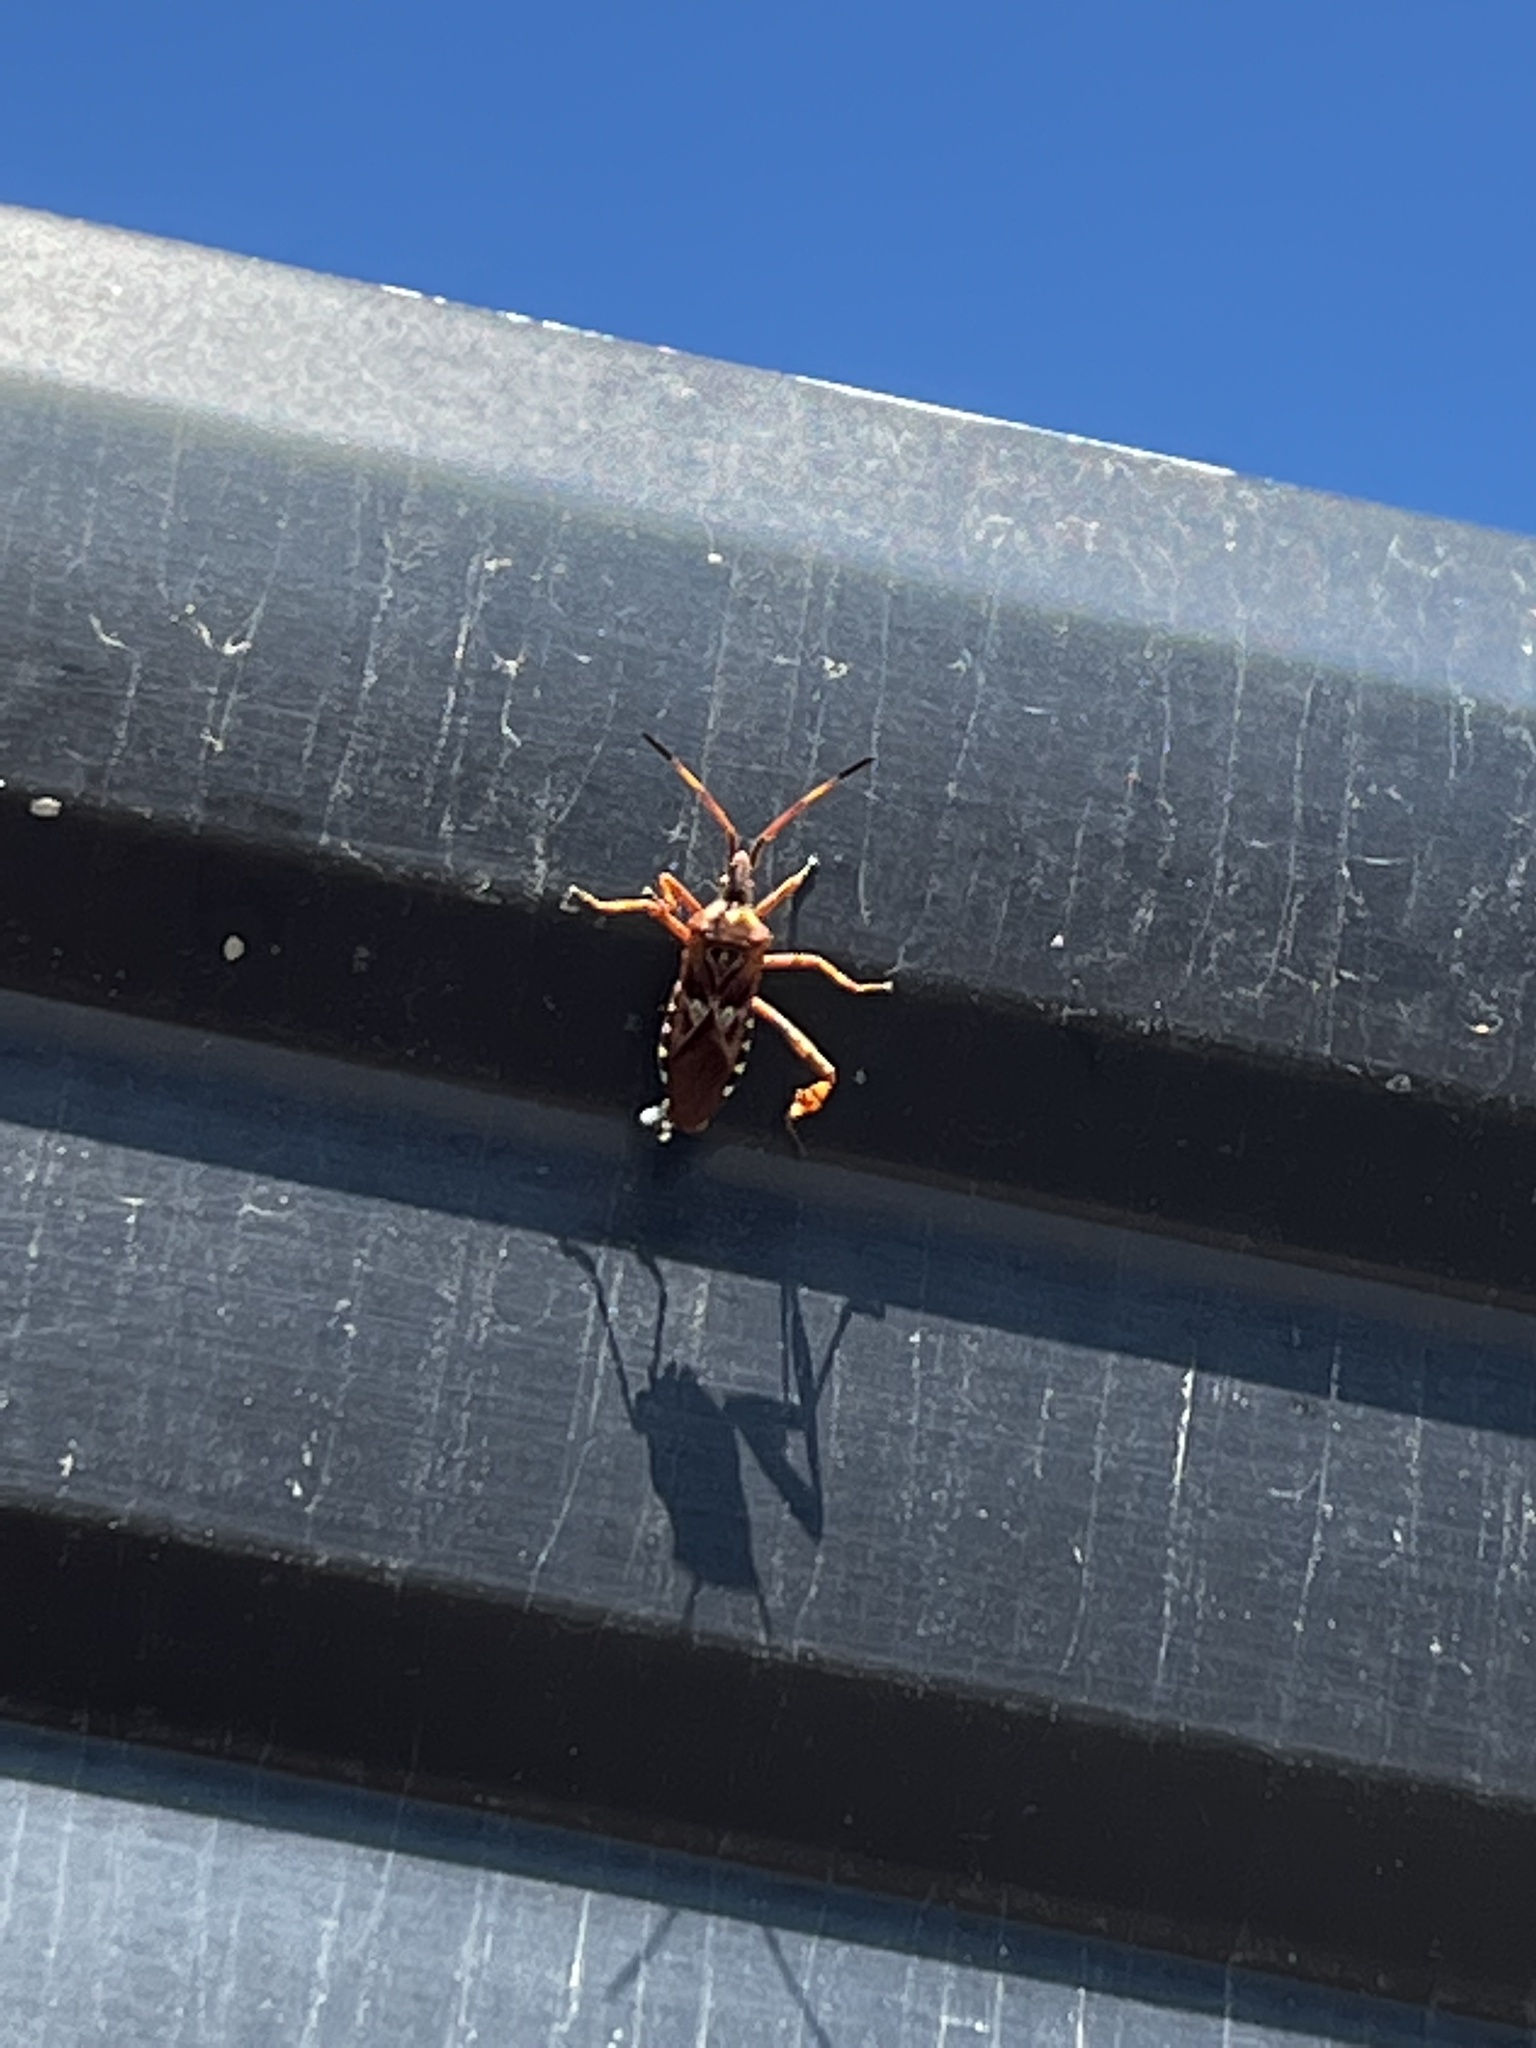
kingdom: Animalia
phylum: Arthropoda
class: Insecta
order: Hemiptera
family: Coreidae
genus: Leptoglossus
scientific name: Leptoglossus occidentalis
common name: Western conifer-seed bug
